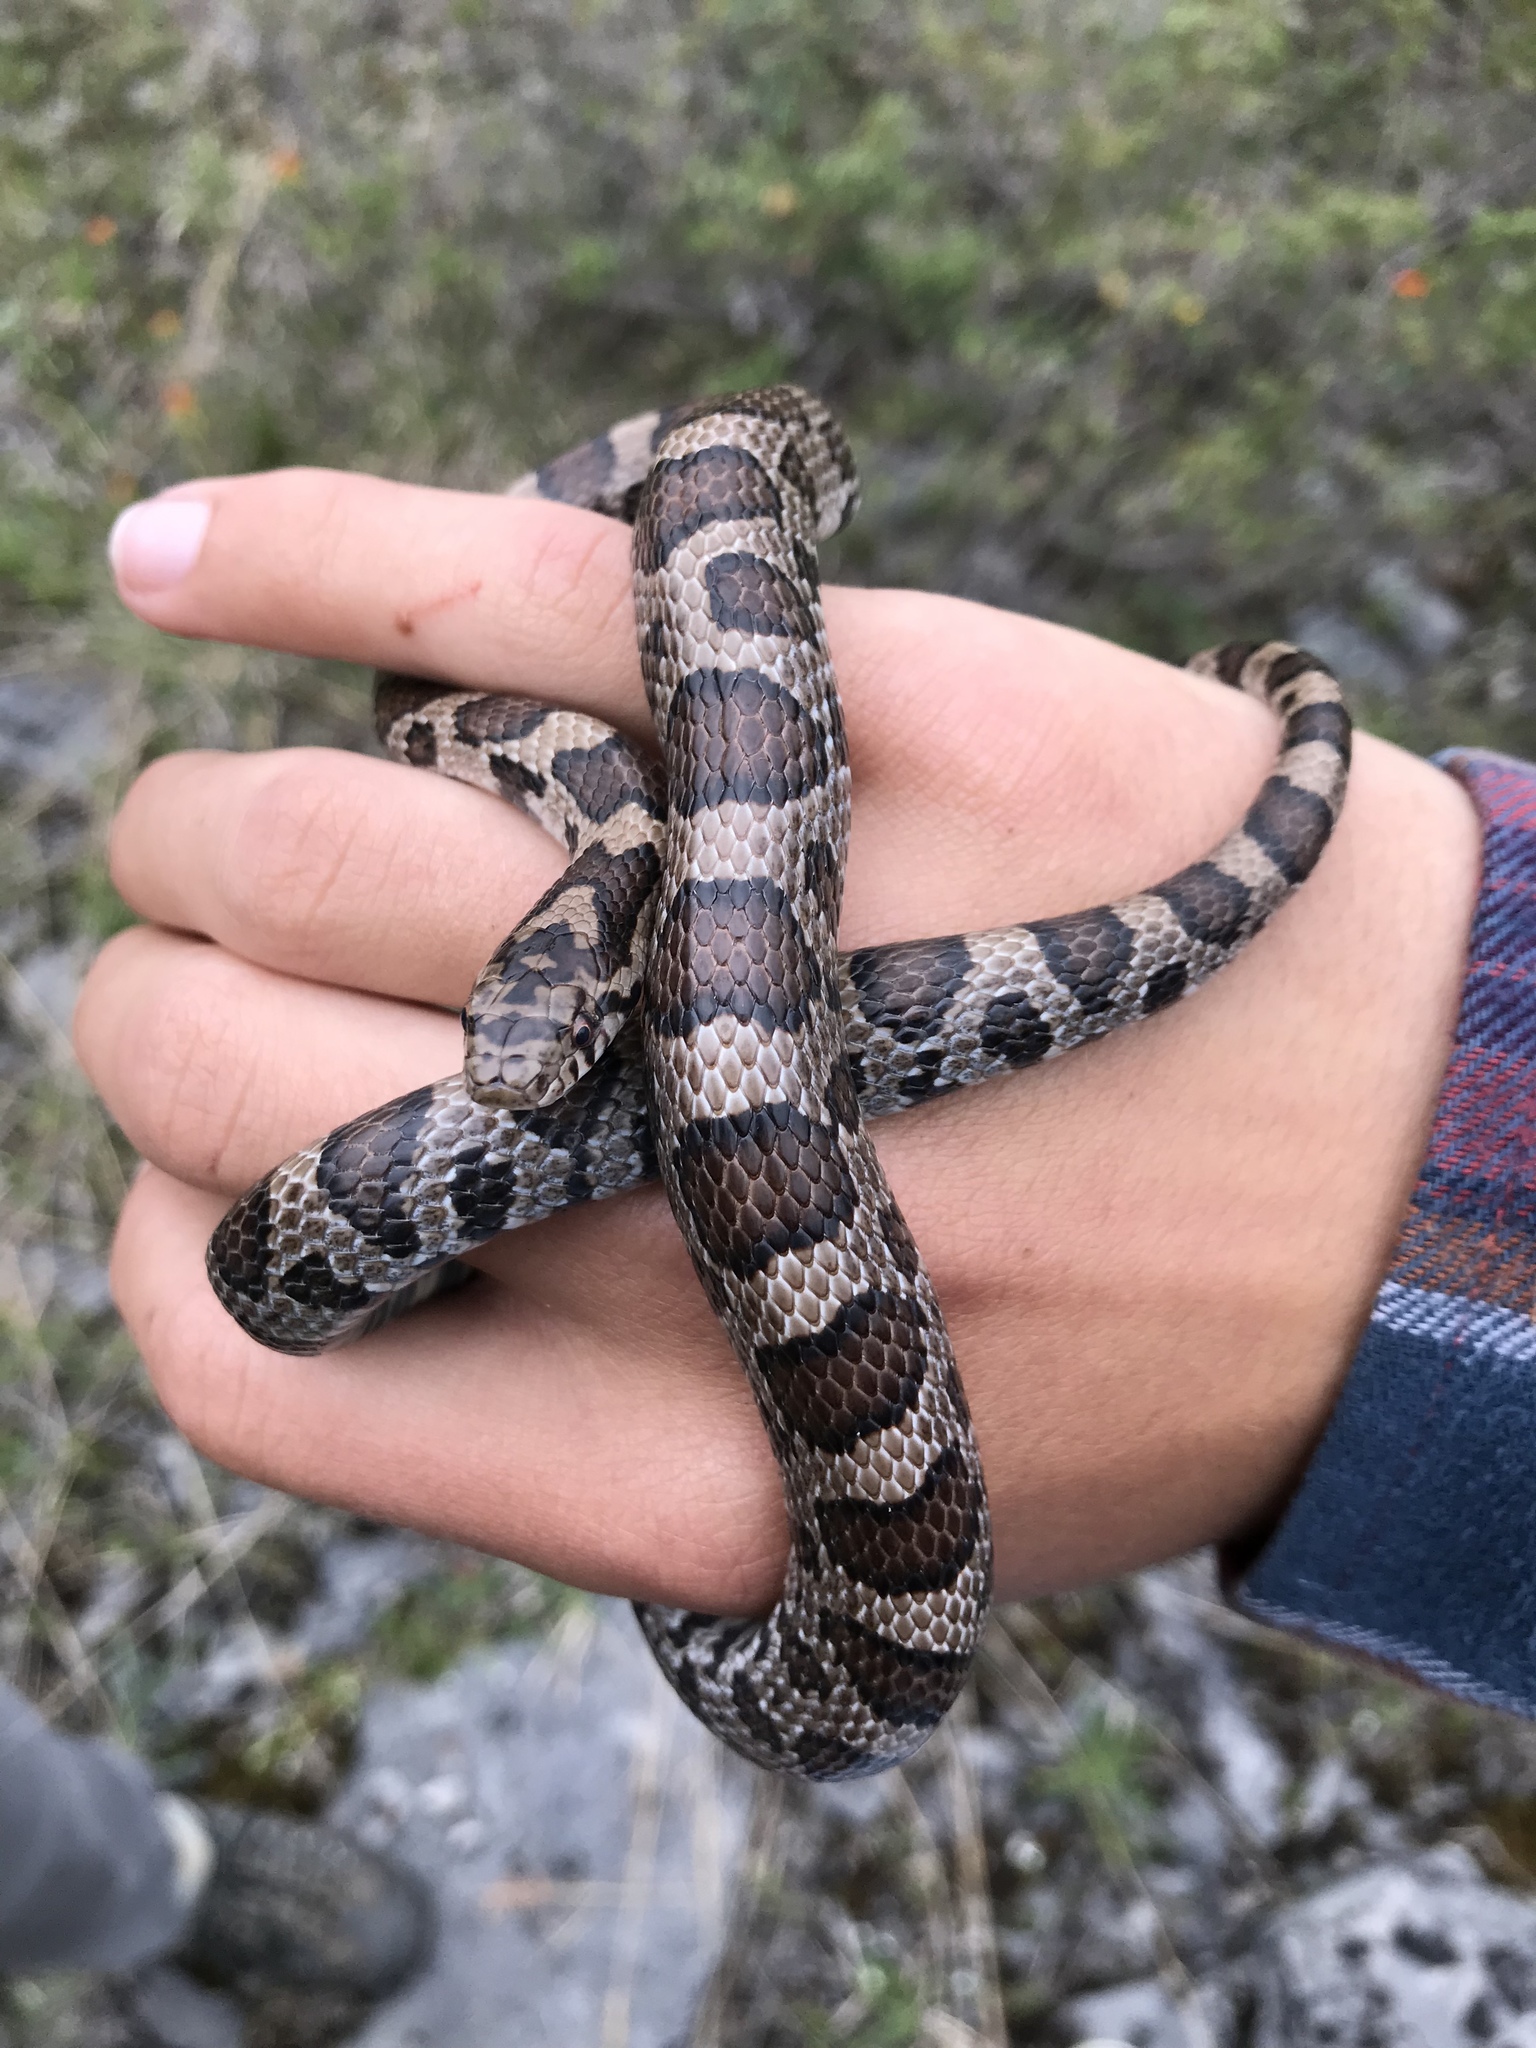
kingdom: Animalia
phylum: Chordata
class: Squamata
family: Colubridae
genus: Lampropeltis
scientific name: Lampropeltis triangulum
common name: Eastern milksnake
